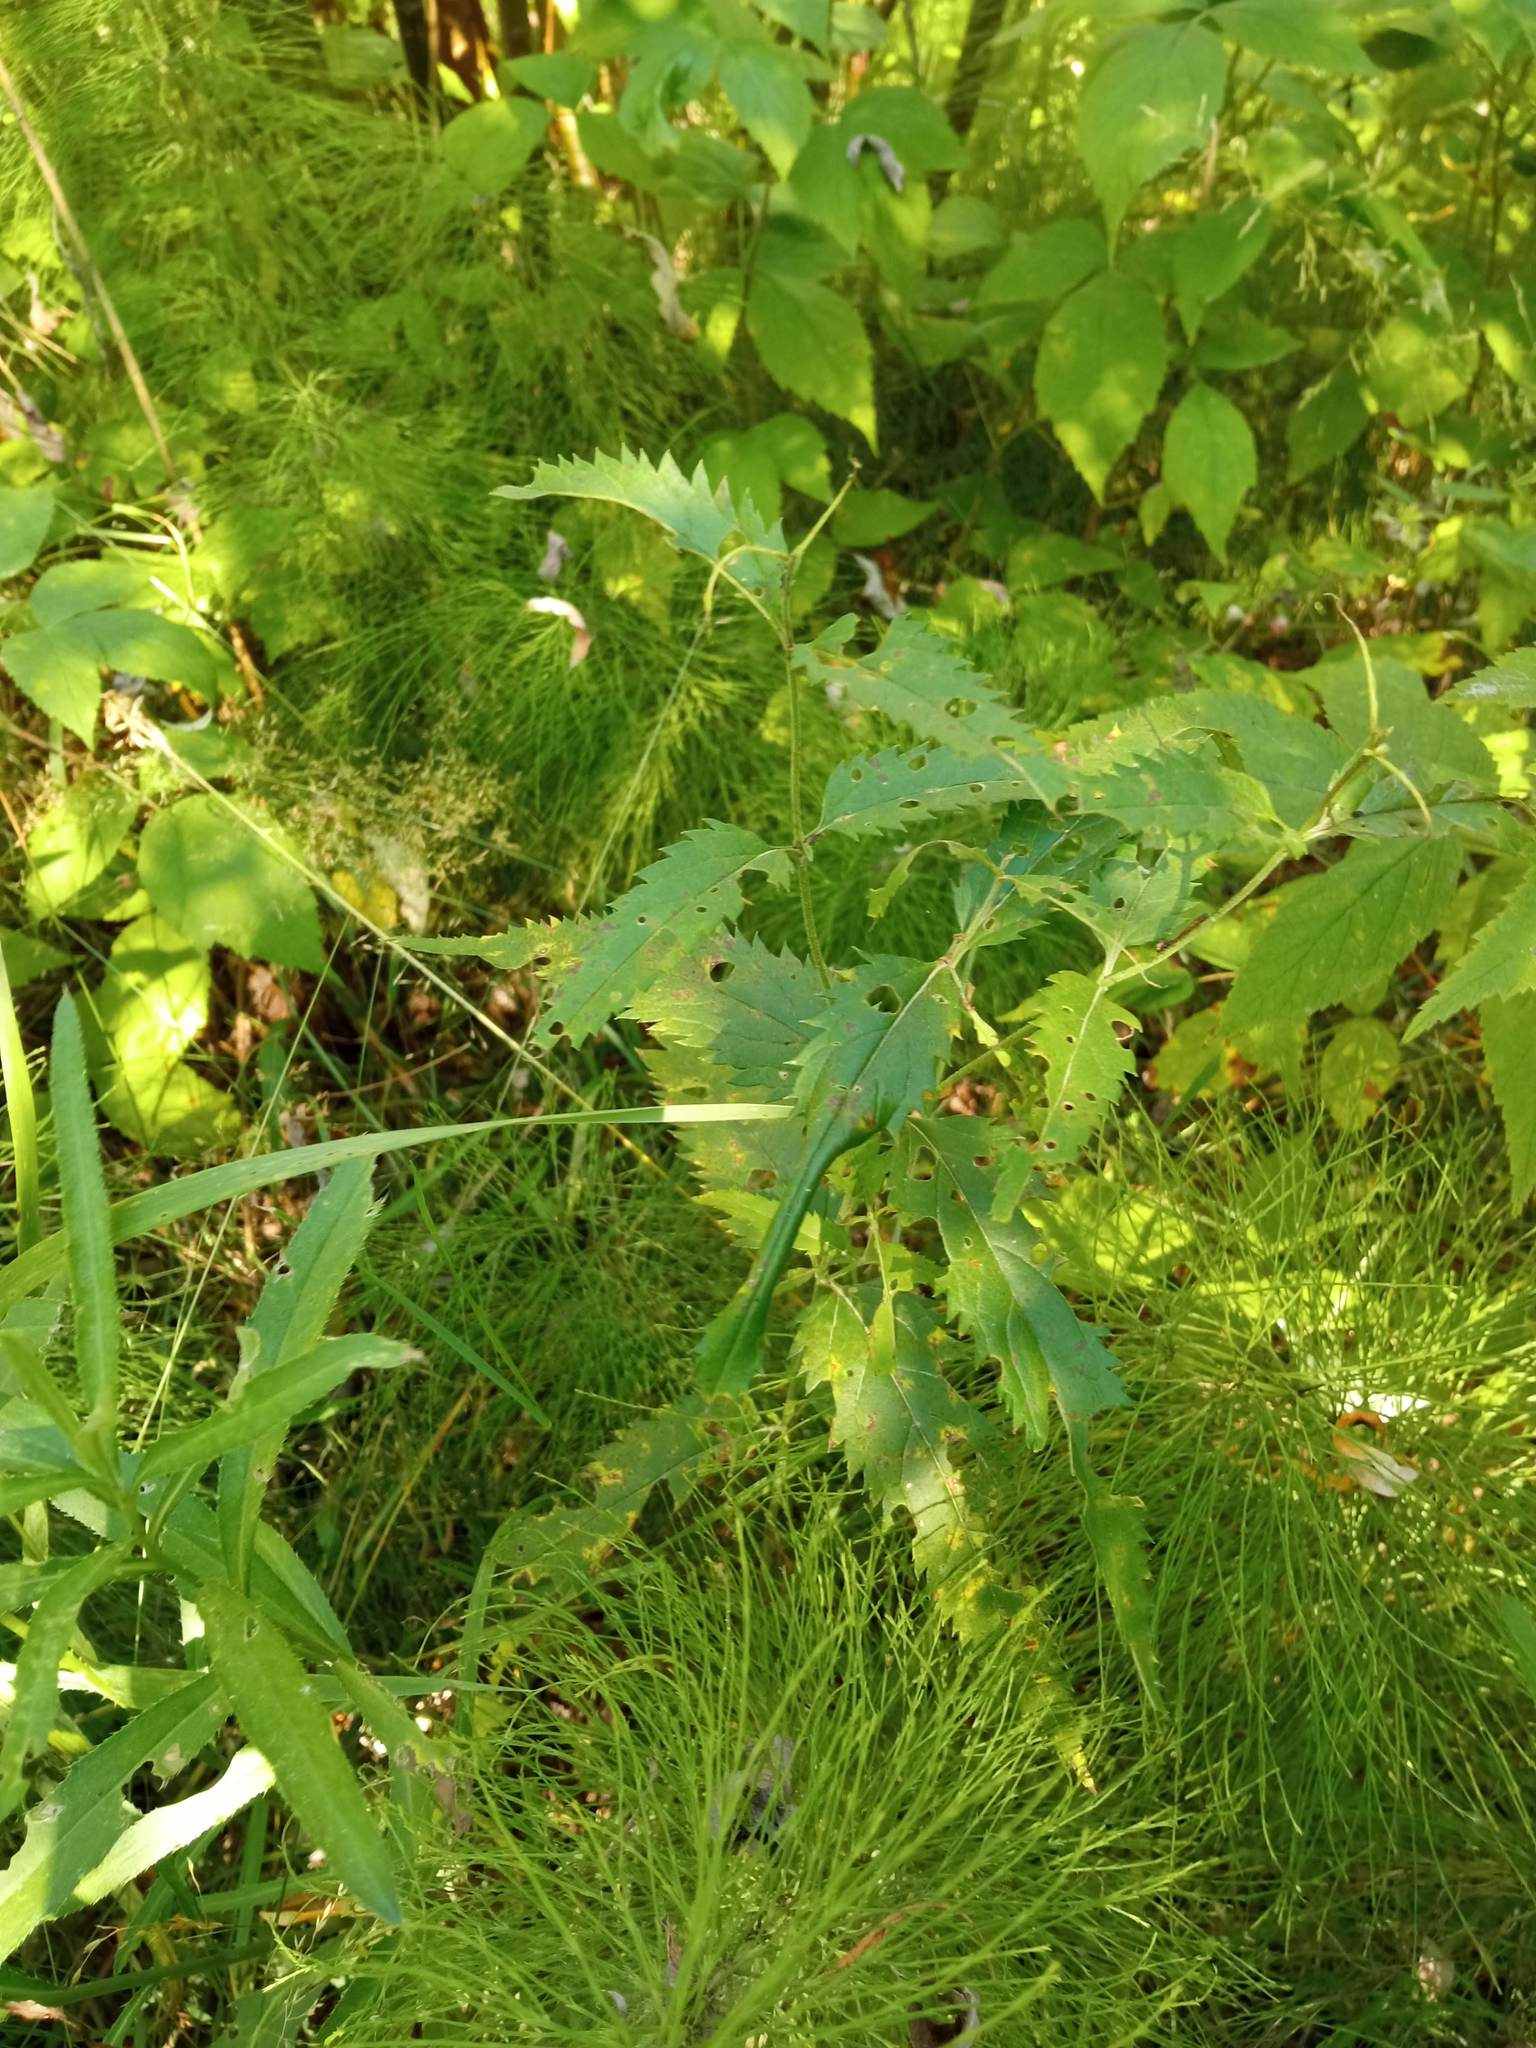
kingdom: Plantae
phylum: Tracheophyta
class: Magnoliopsida
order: Lamiales
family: Plantaginaceae
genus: Veronica
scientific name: Veronica longifolia
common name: Garden speedwell
